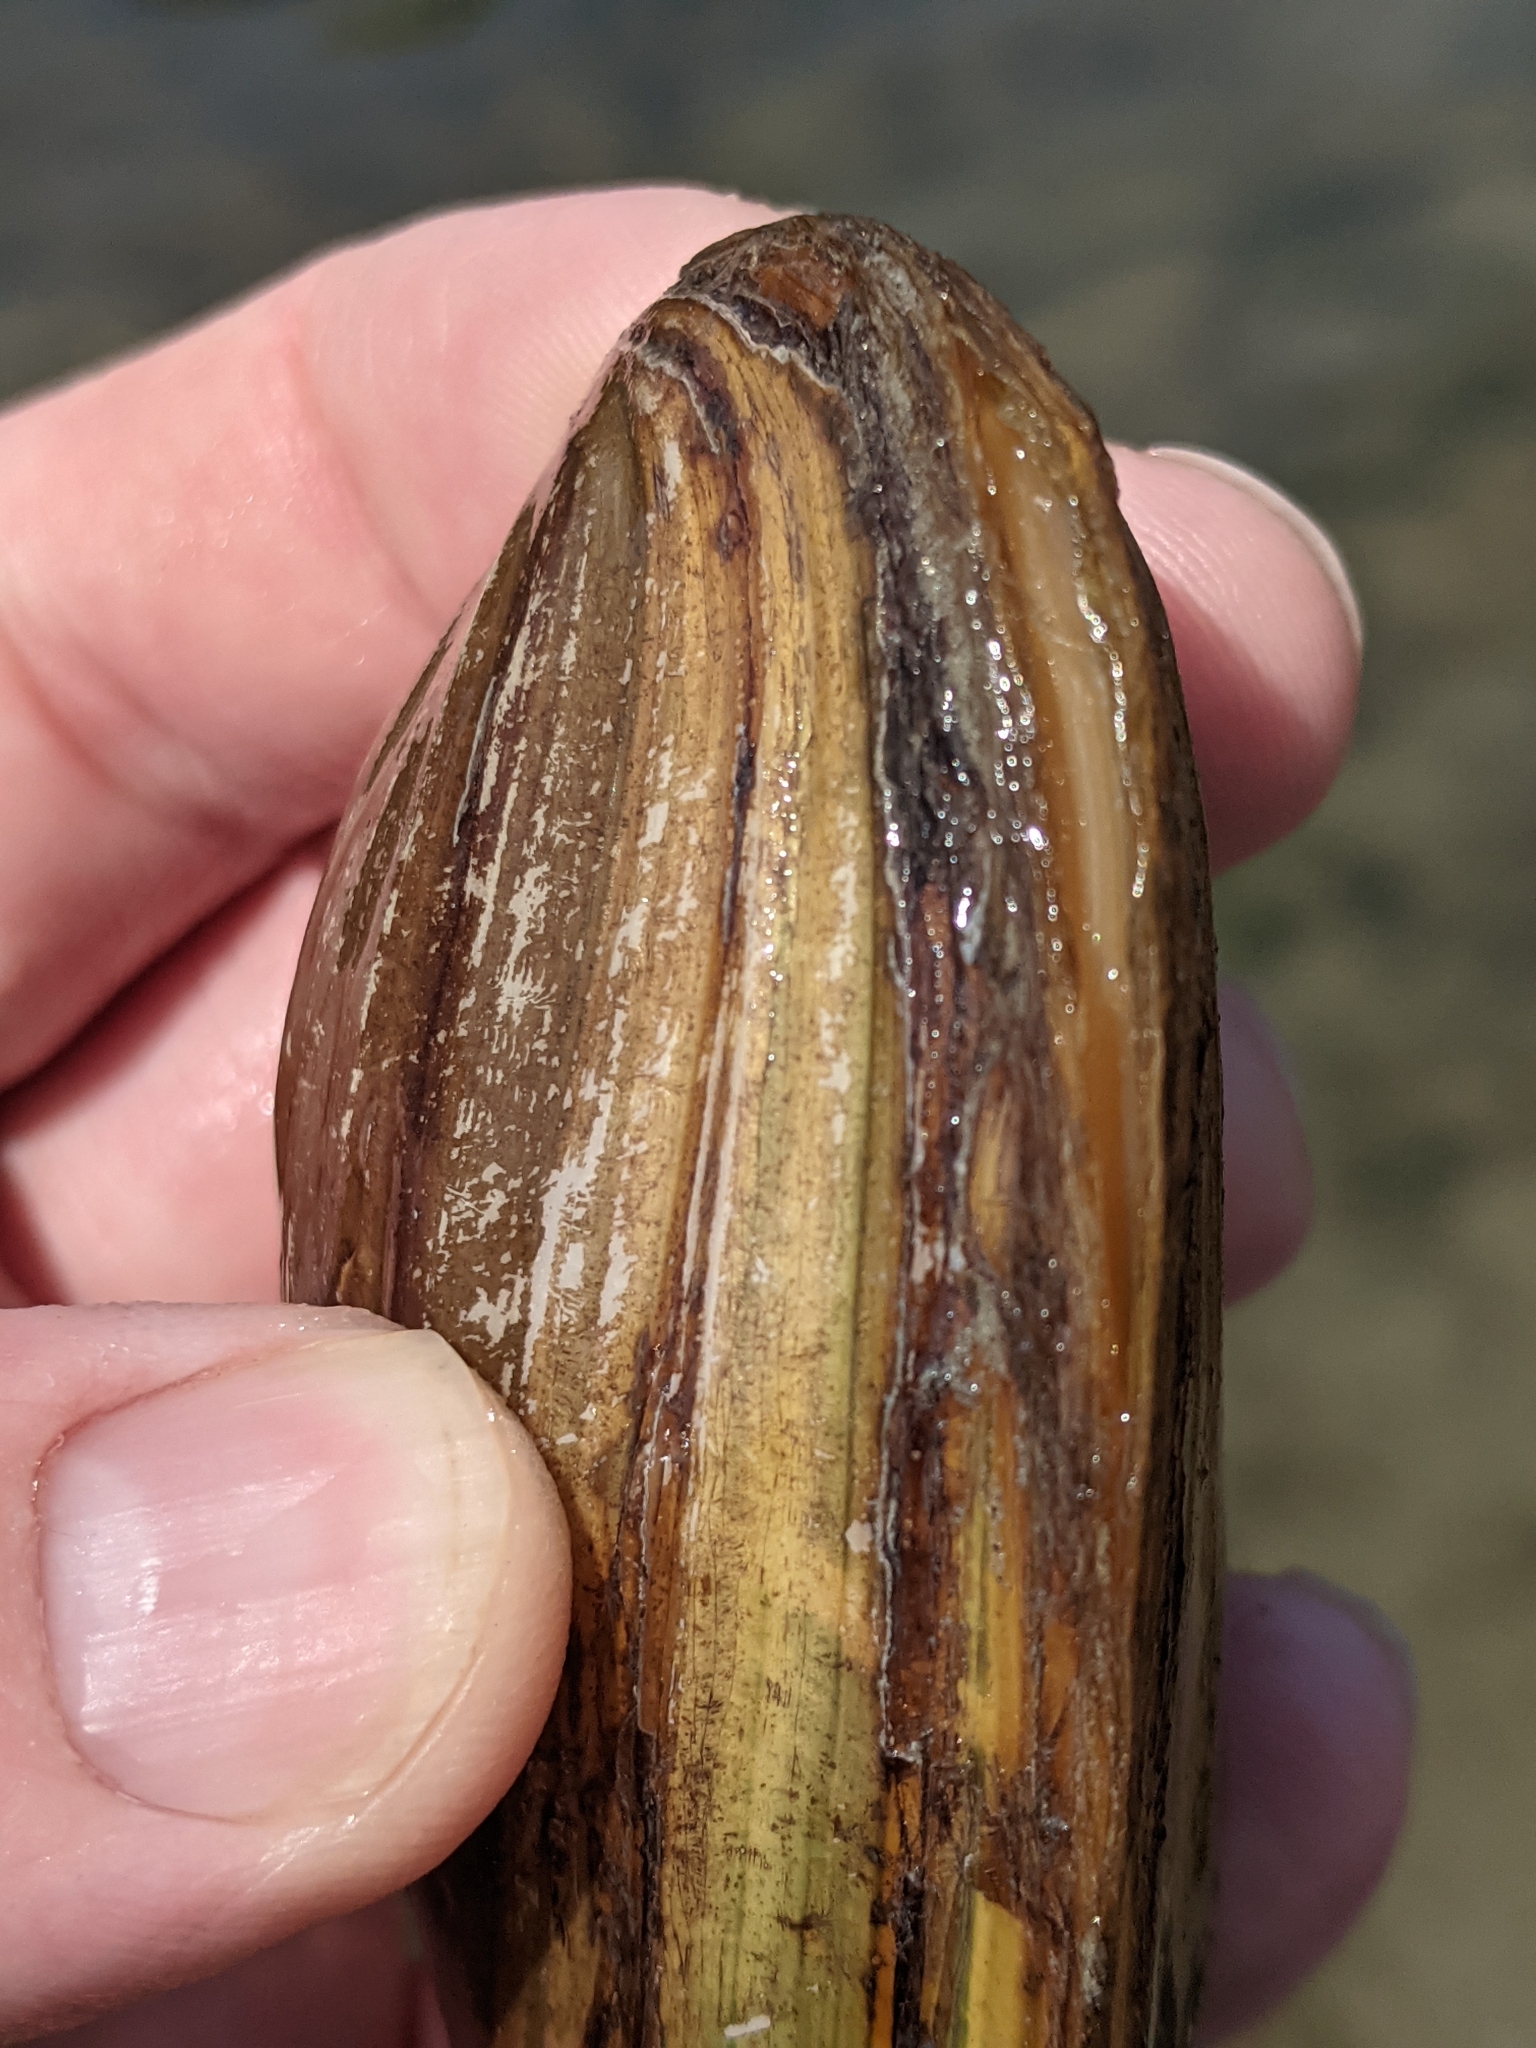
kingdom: Animalia
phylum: Mollusca
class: Bivalvia
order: Unionida
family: Unionidae
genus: Pyganodon
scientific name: Pyganodon cataracta
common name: Eastern floater
